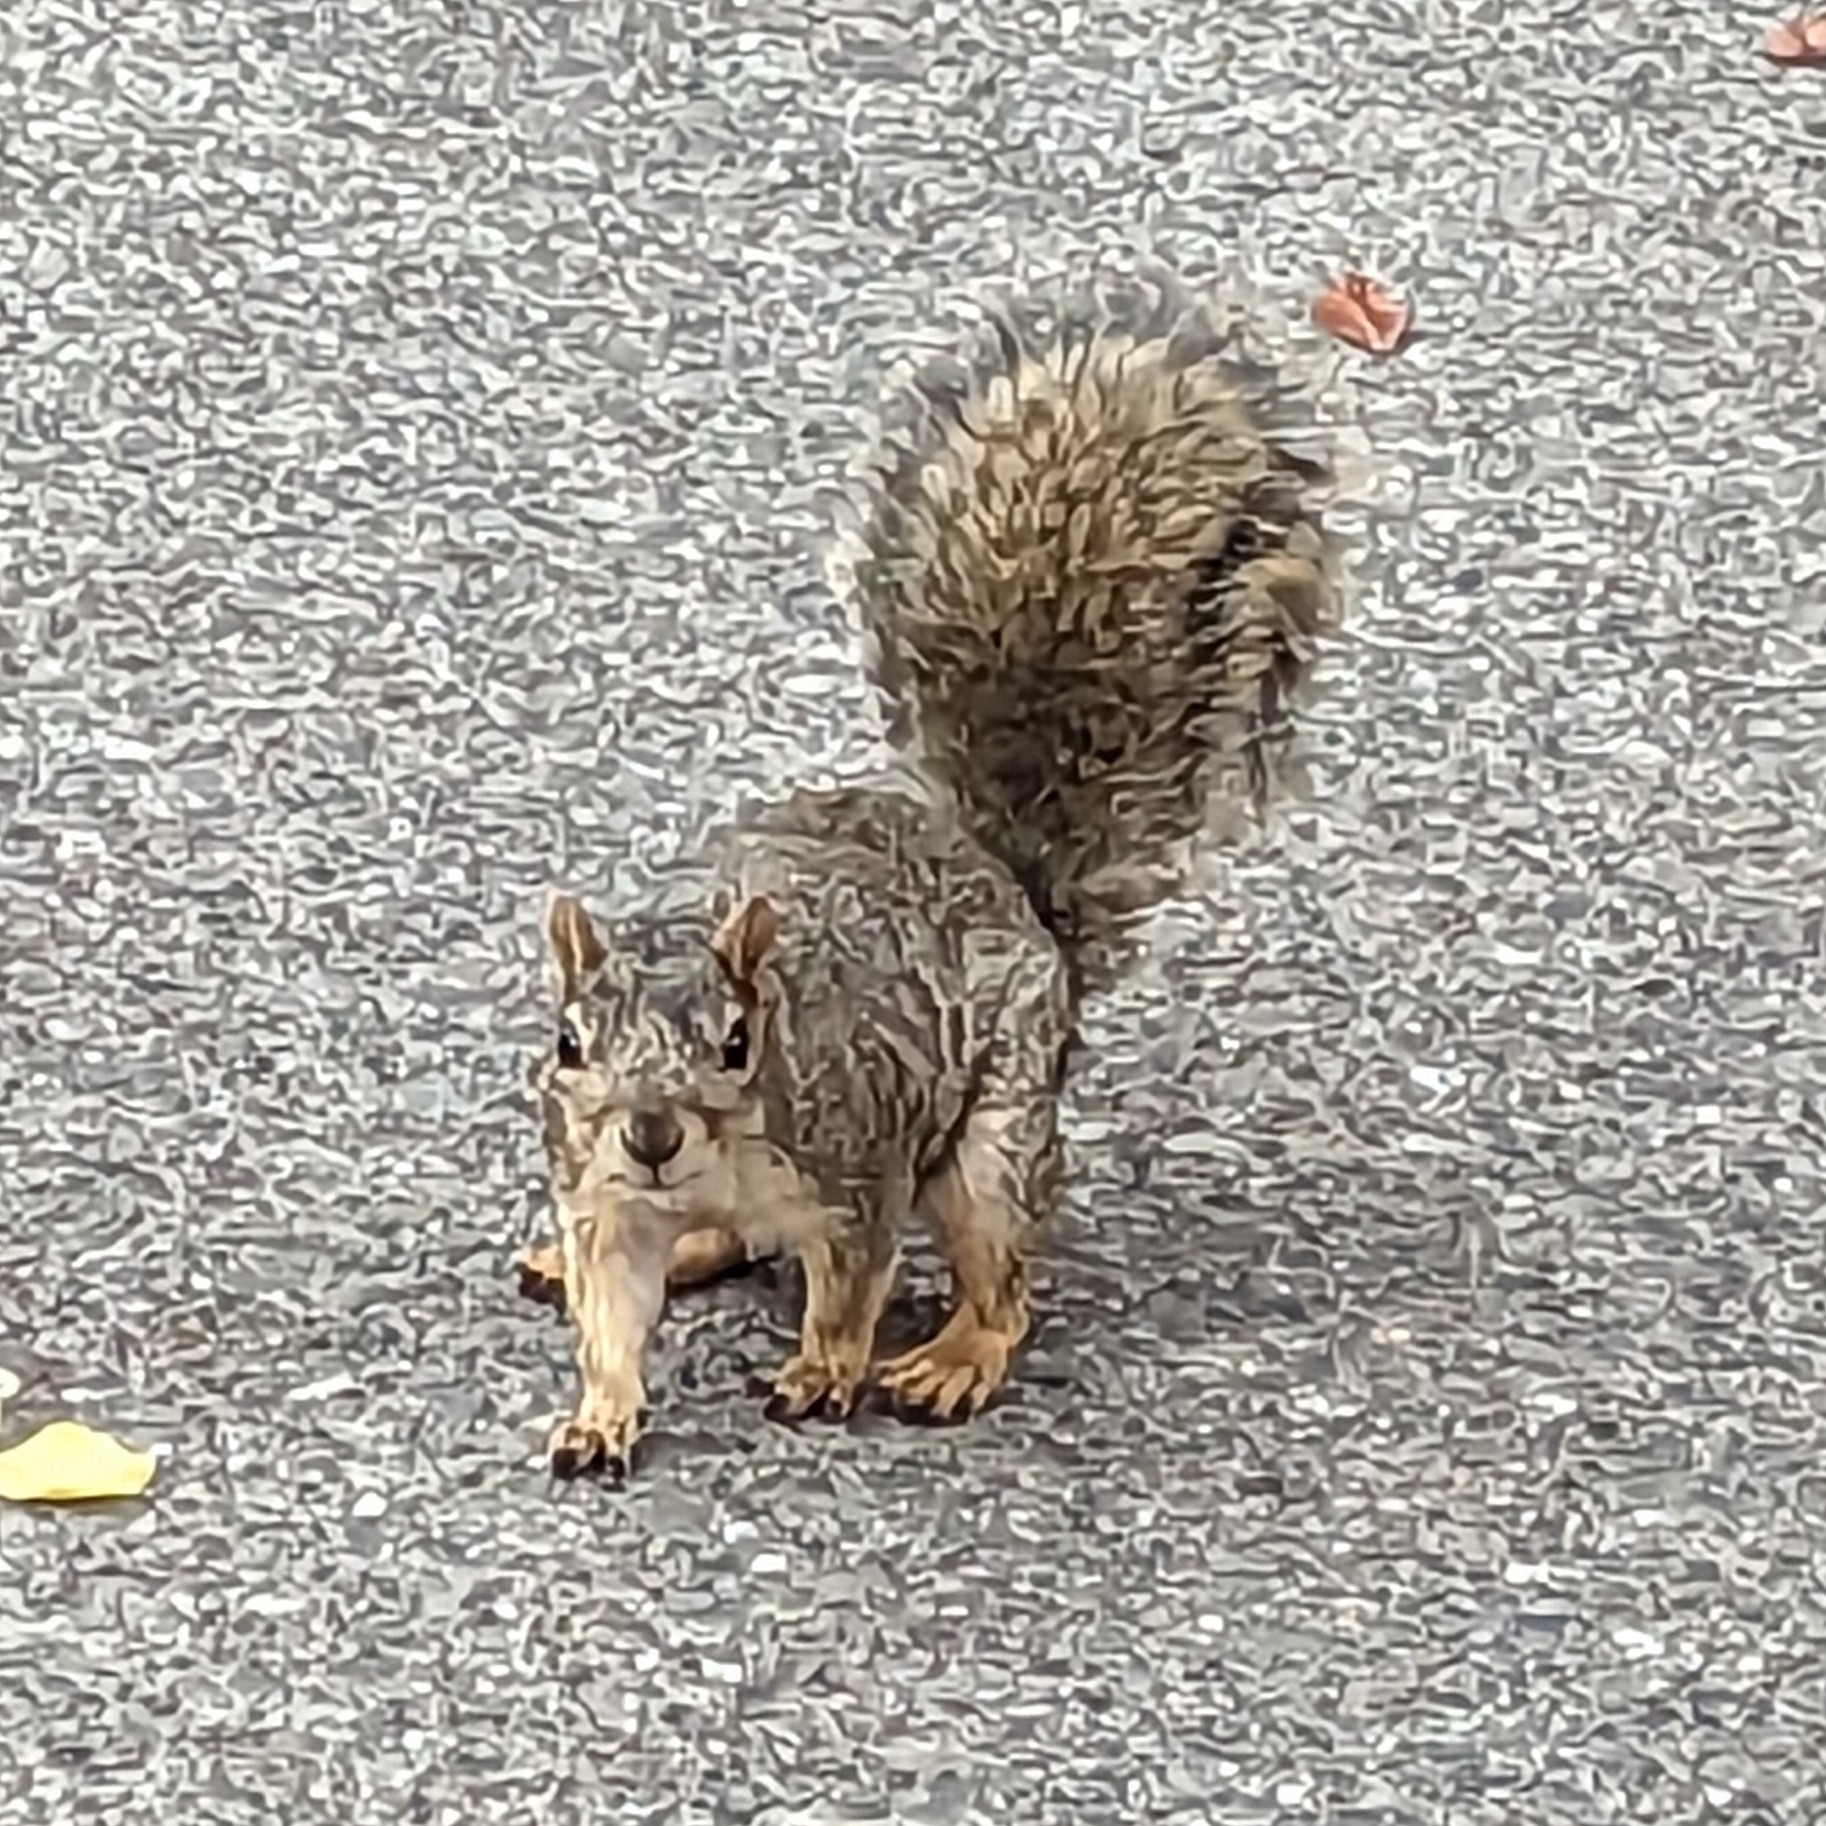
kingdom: Animalia
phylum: Chordata
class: Mammalia
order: Rodentia
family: Sciuridae
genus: Sciurus
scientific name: Sciurus niger
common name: Fox squirrel
